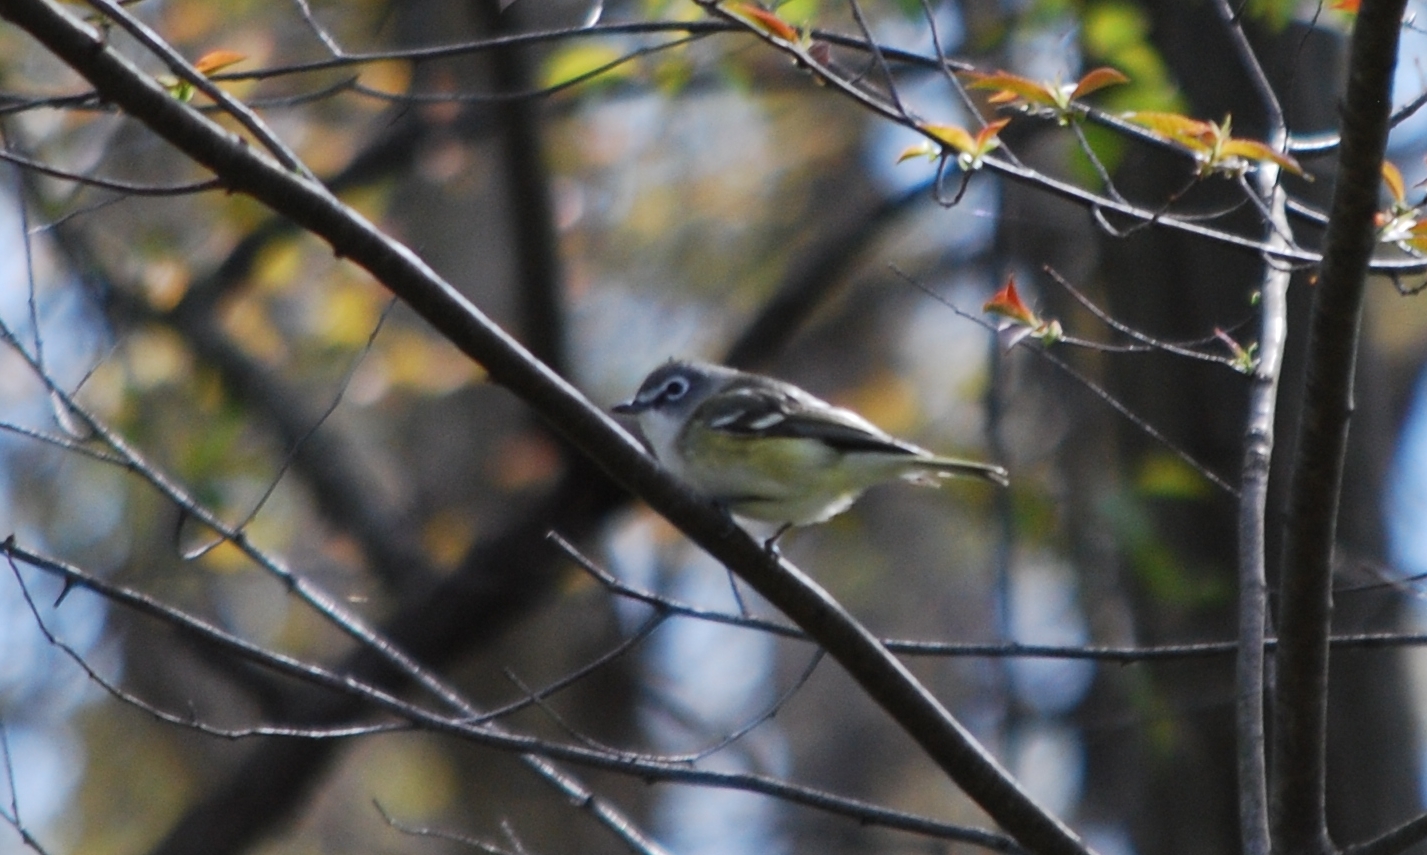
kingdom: Animalia
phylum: Chordata
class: Aves
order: Passeriformes
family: Vireonidae
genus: Vireo
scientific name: Vireo solitarius
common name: Blue-headed vireo
